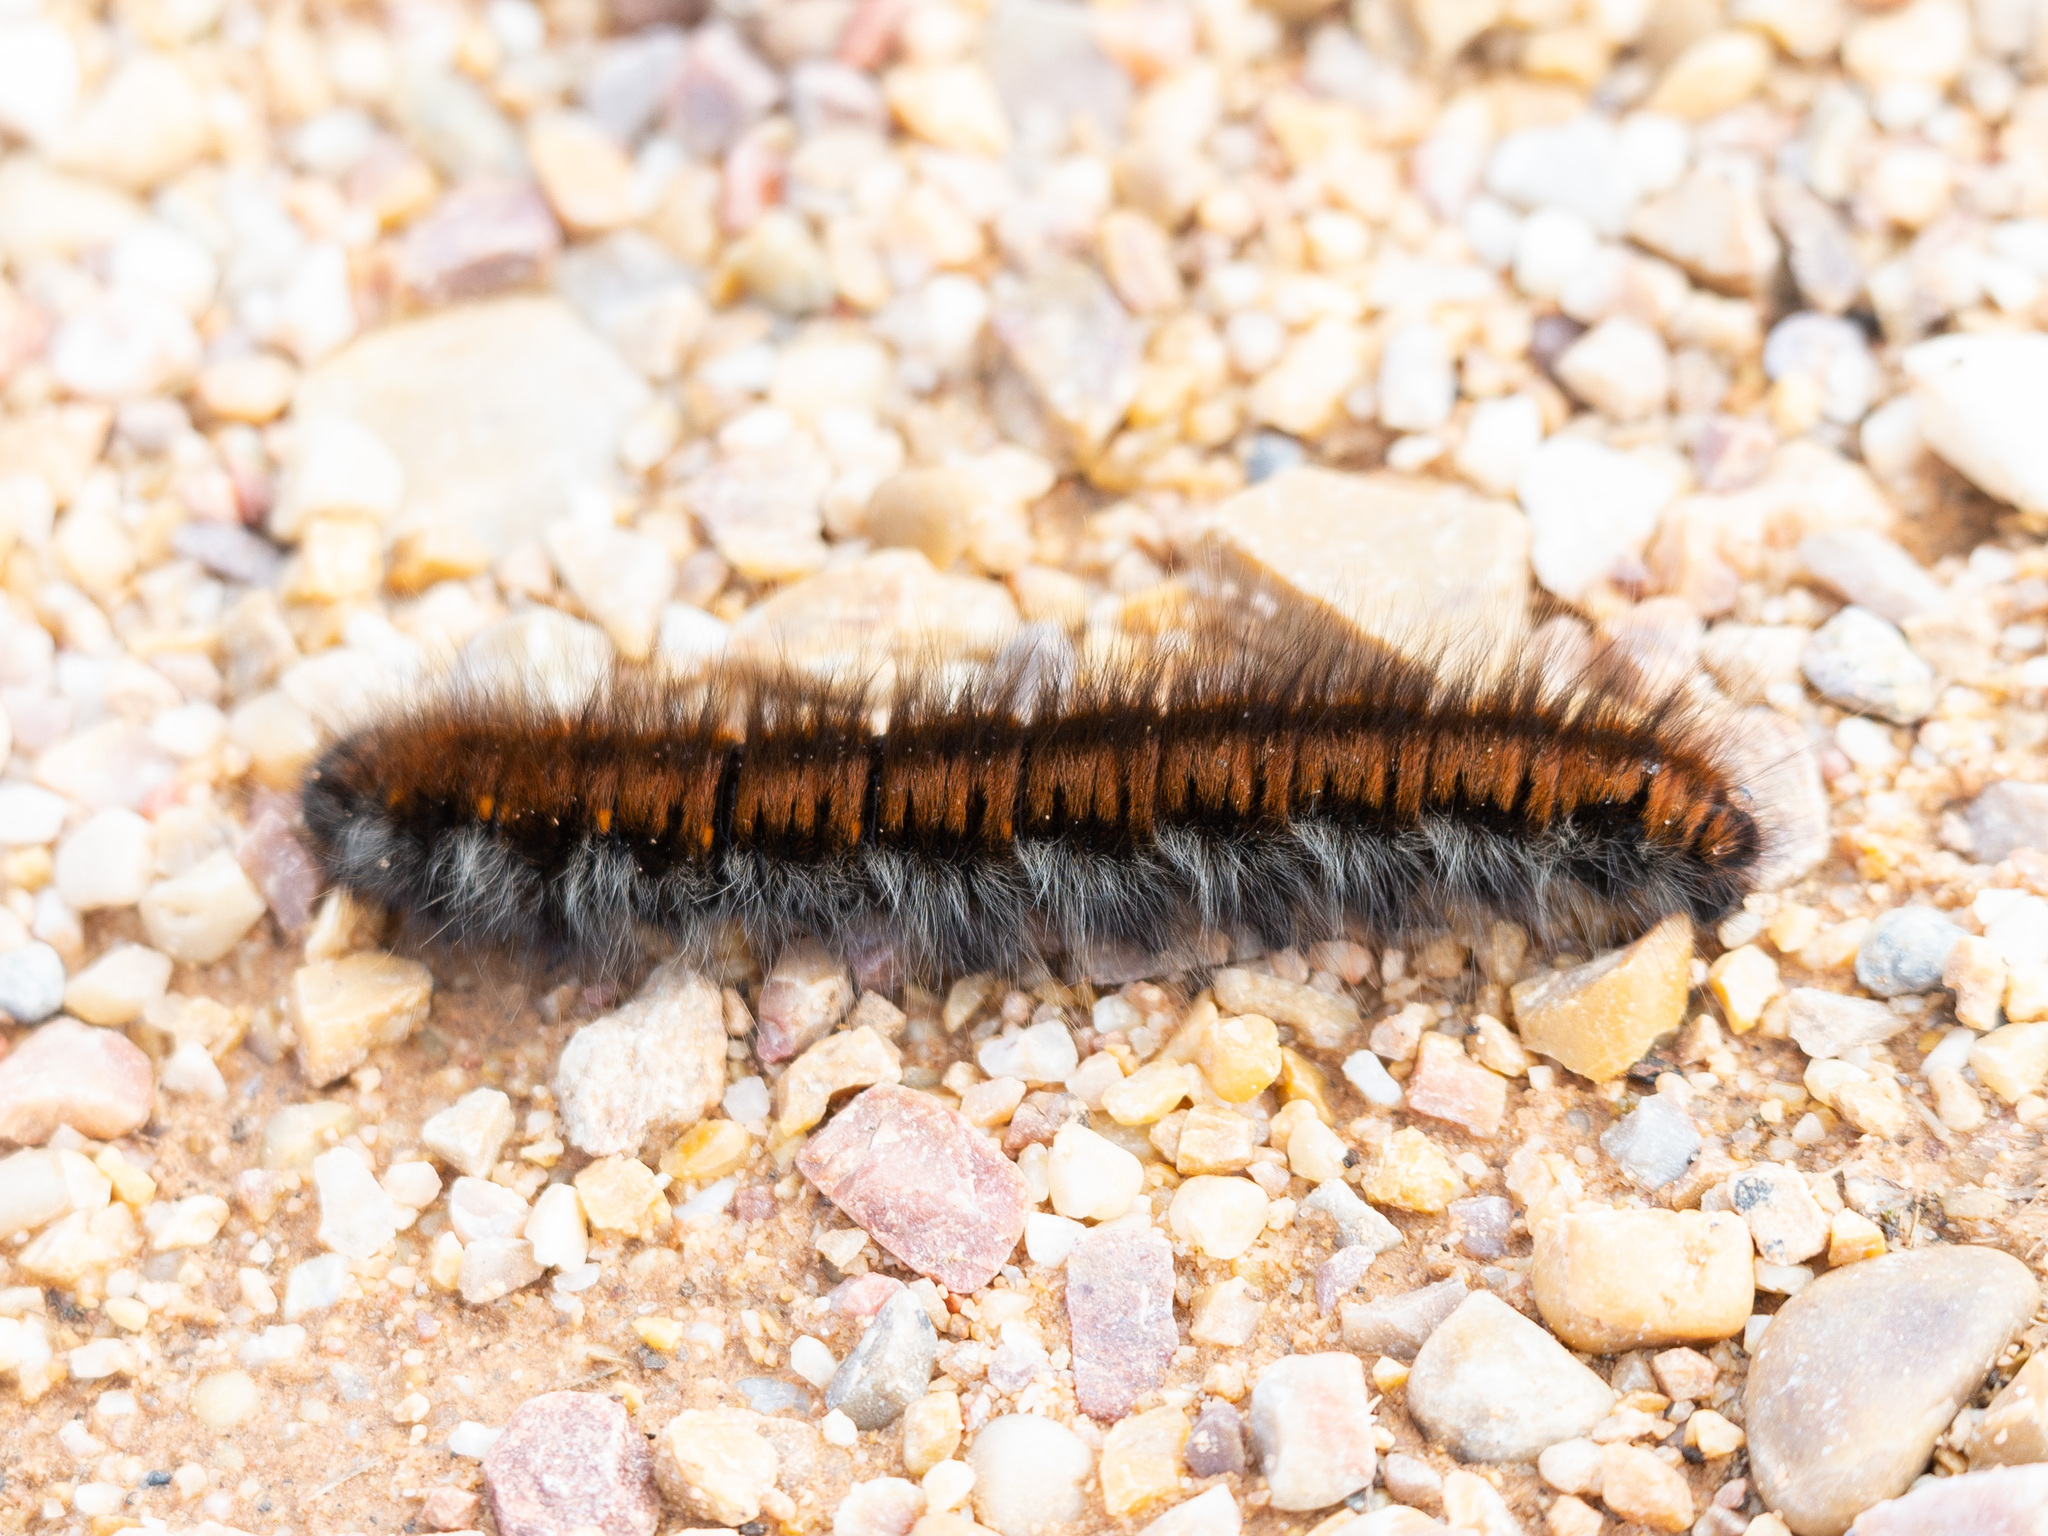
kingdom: Animalia
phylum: Arthropoda
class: Insecta
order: Lepidoptera
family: Lasiocampidae
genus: Macrothylacia
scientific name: Macrothylacia rubi
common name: Fox moth
